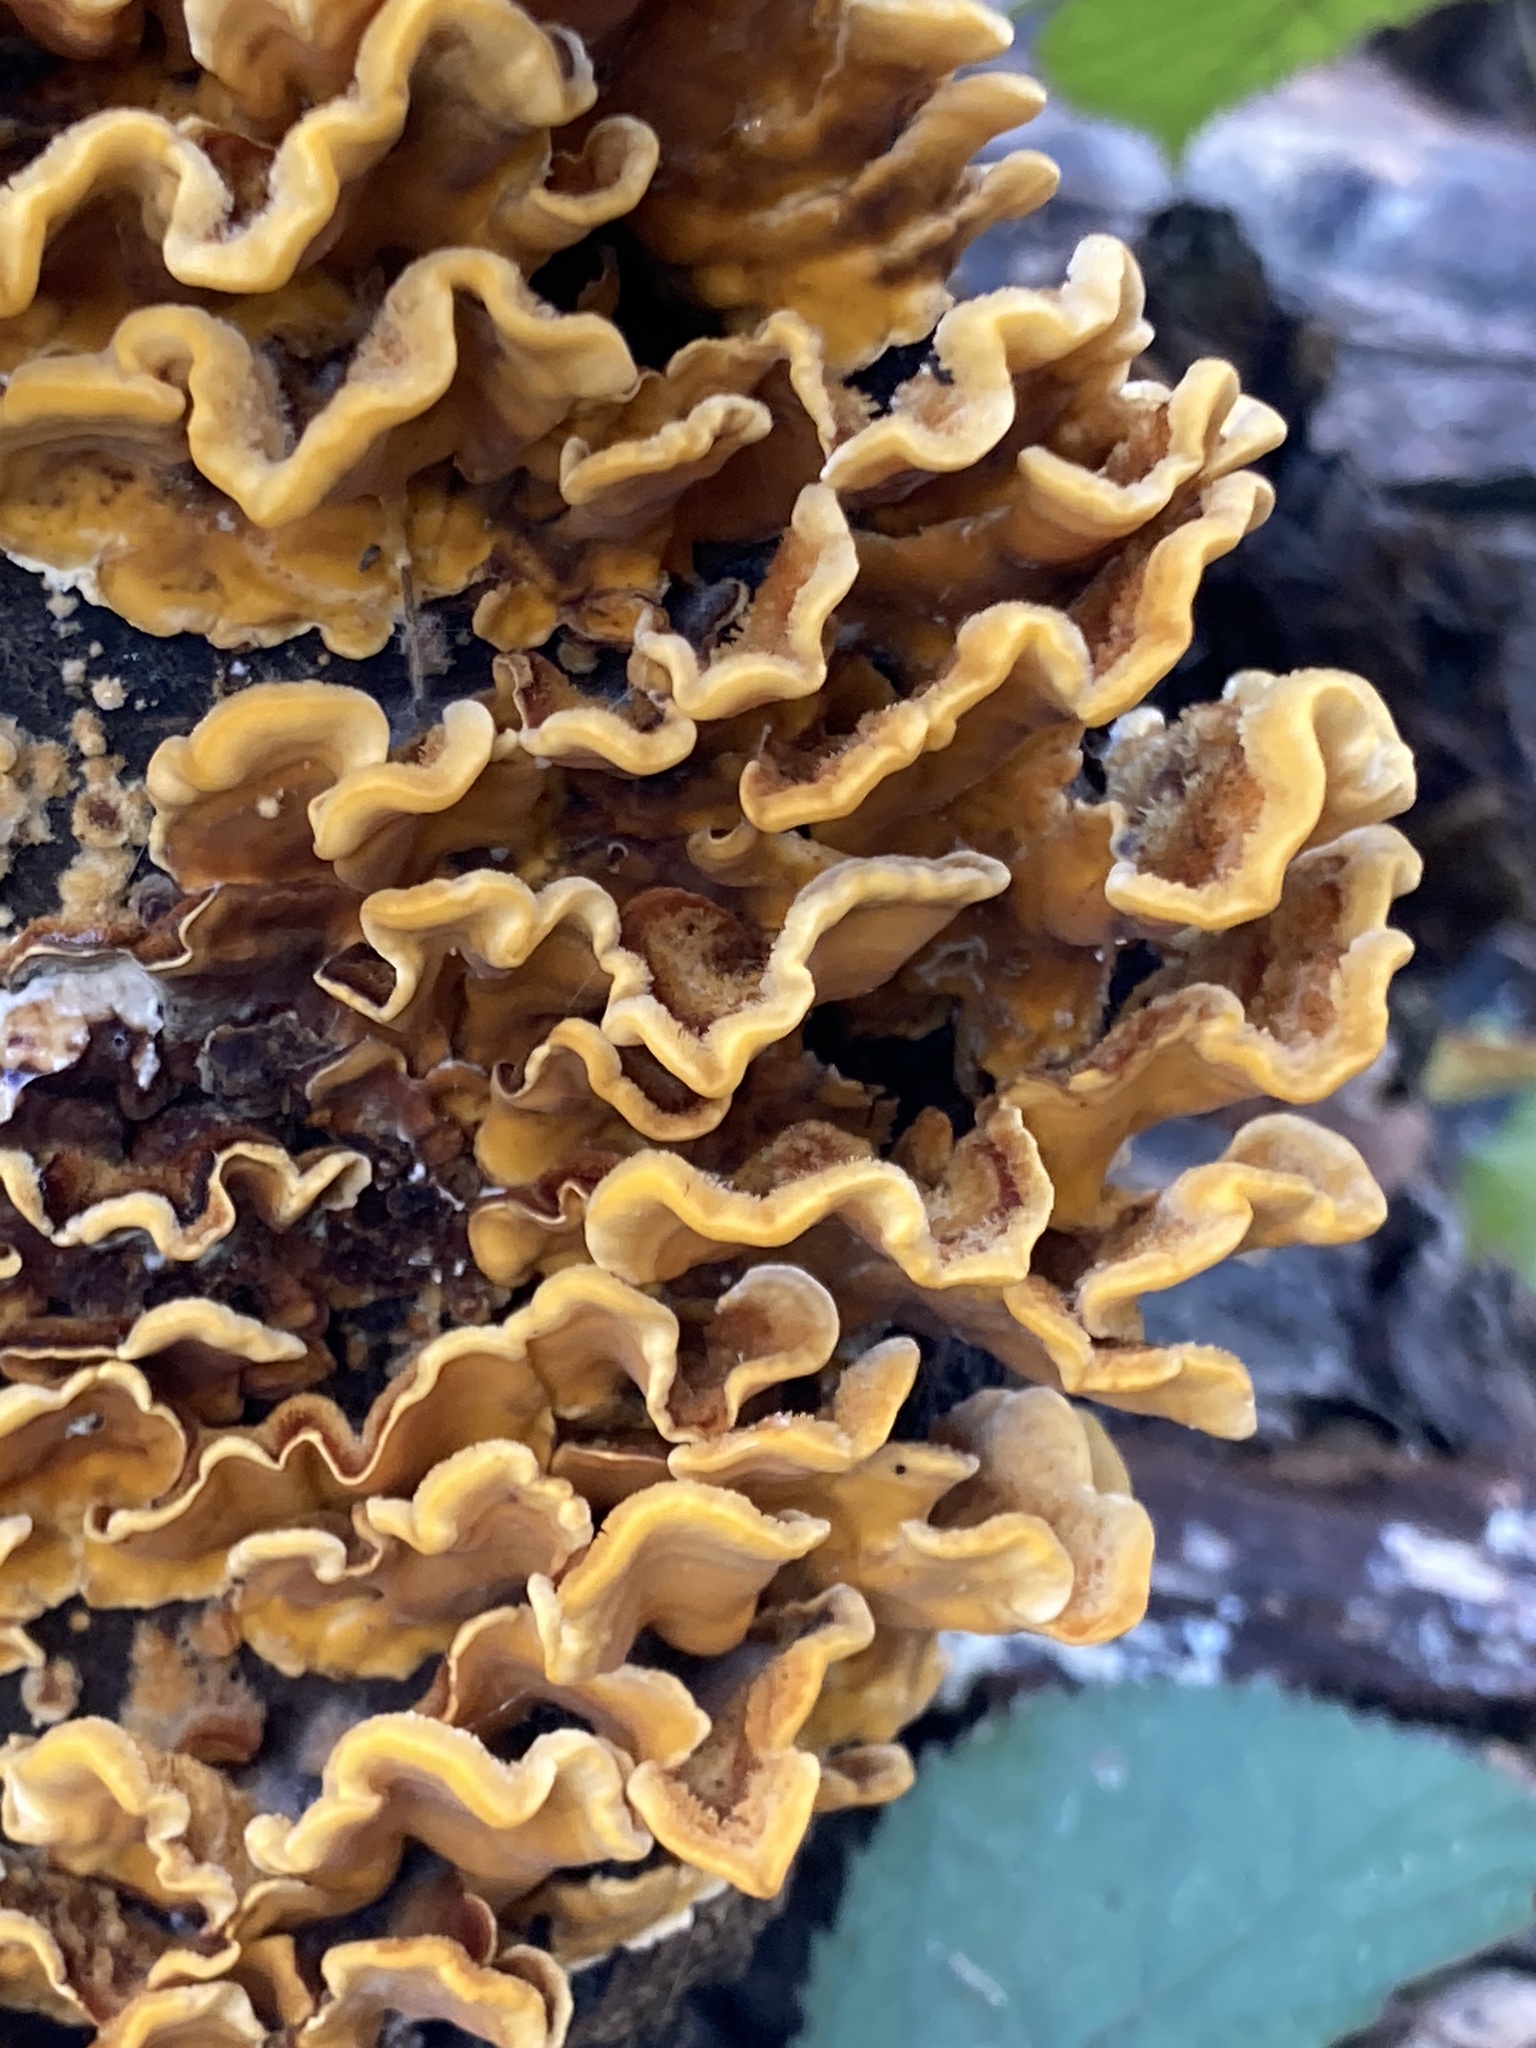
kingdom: Fungi
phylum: Basidiomycota
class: Agaricomycetes
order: Russulales
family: Stereaceae
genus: Stereum
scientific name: Stereum hirsutum
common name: Hairy curtain crust
